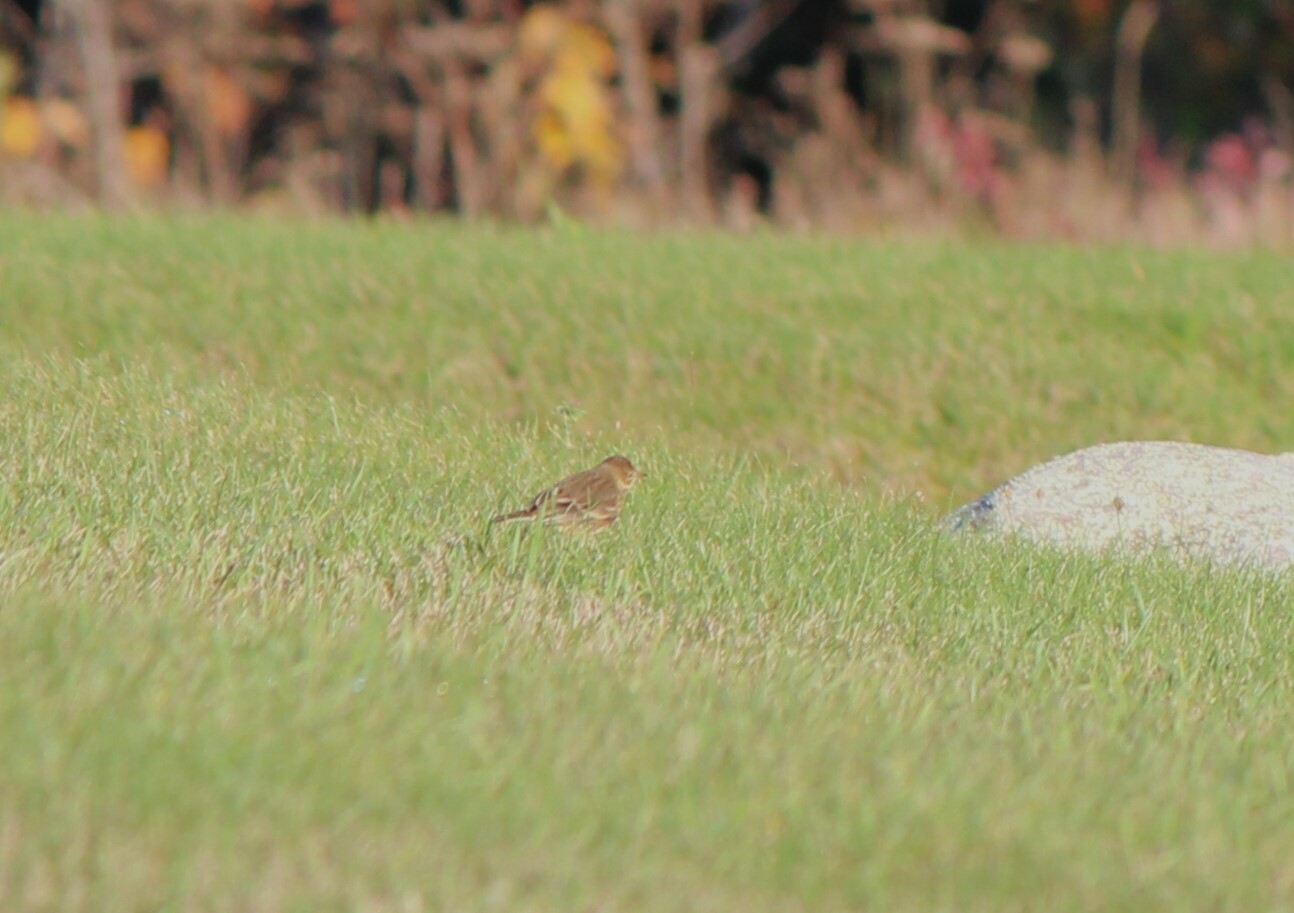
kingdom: Animalia
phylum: Chordata
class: Aves
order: Passeriformes
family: Motacillidae
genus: Anthus
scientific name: Anthus rubescens
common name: Buff-bellied pipit
